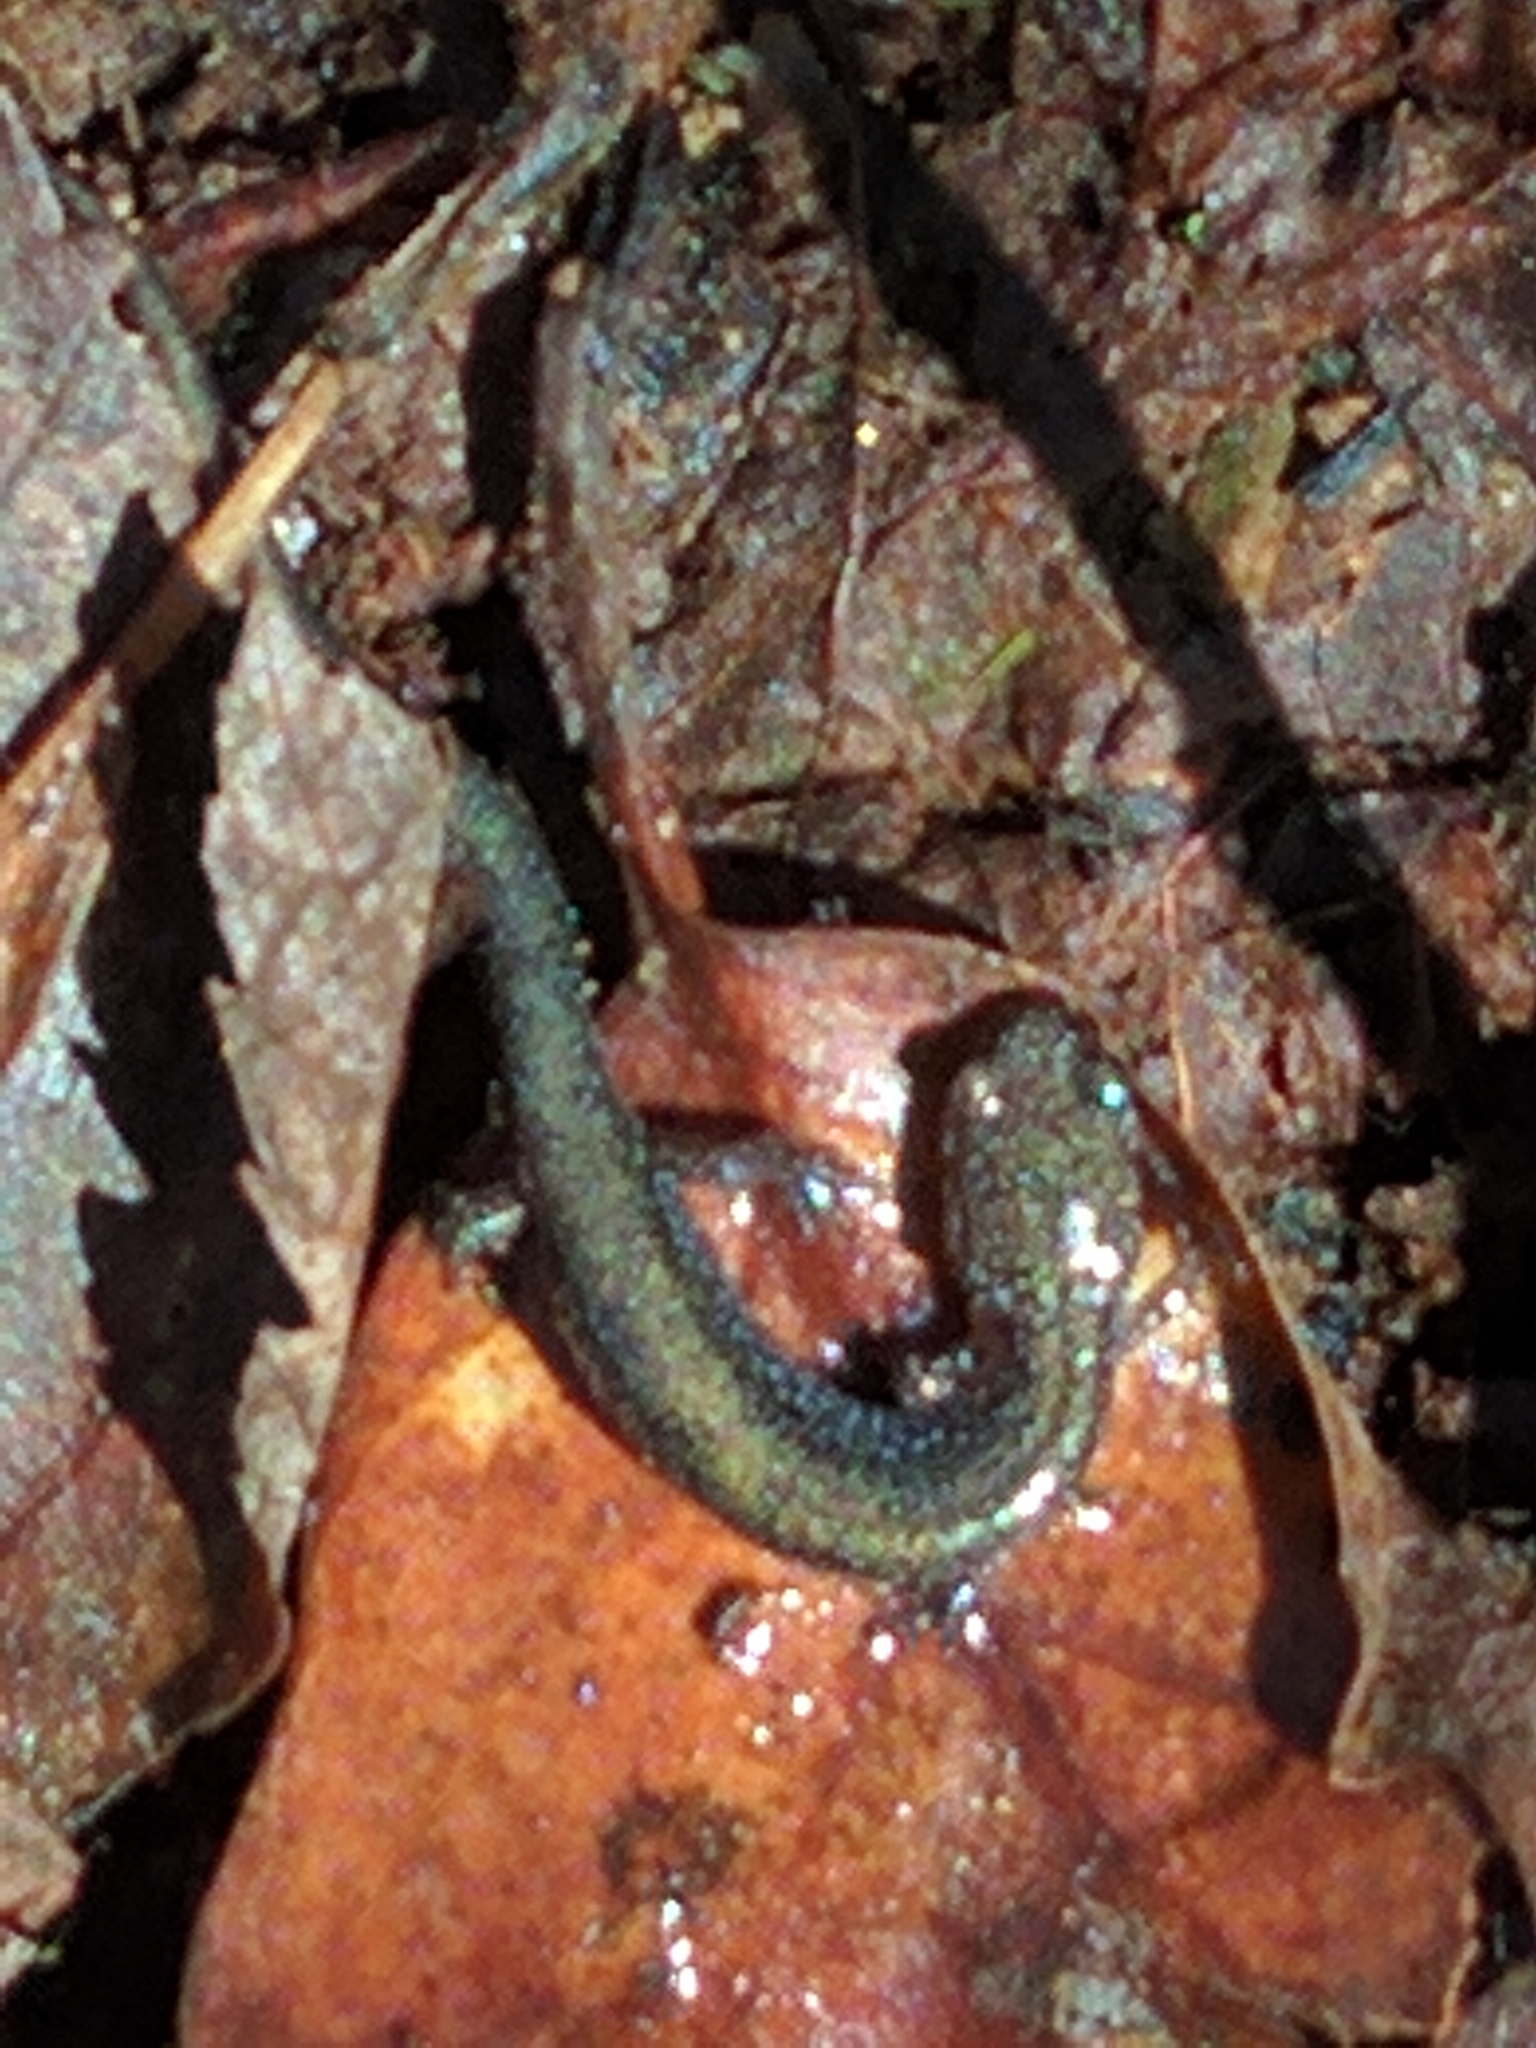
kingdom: Animalia
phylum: Chordata
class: Amphibia
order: Caudata
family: Plethodontidae
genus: Plethodon
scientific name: Plethodon cinereus
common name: Redback salamander
